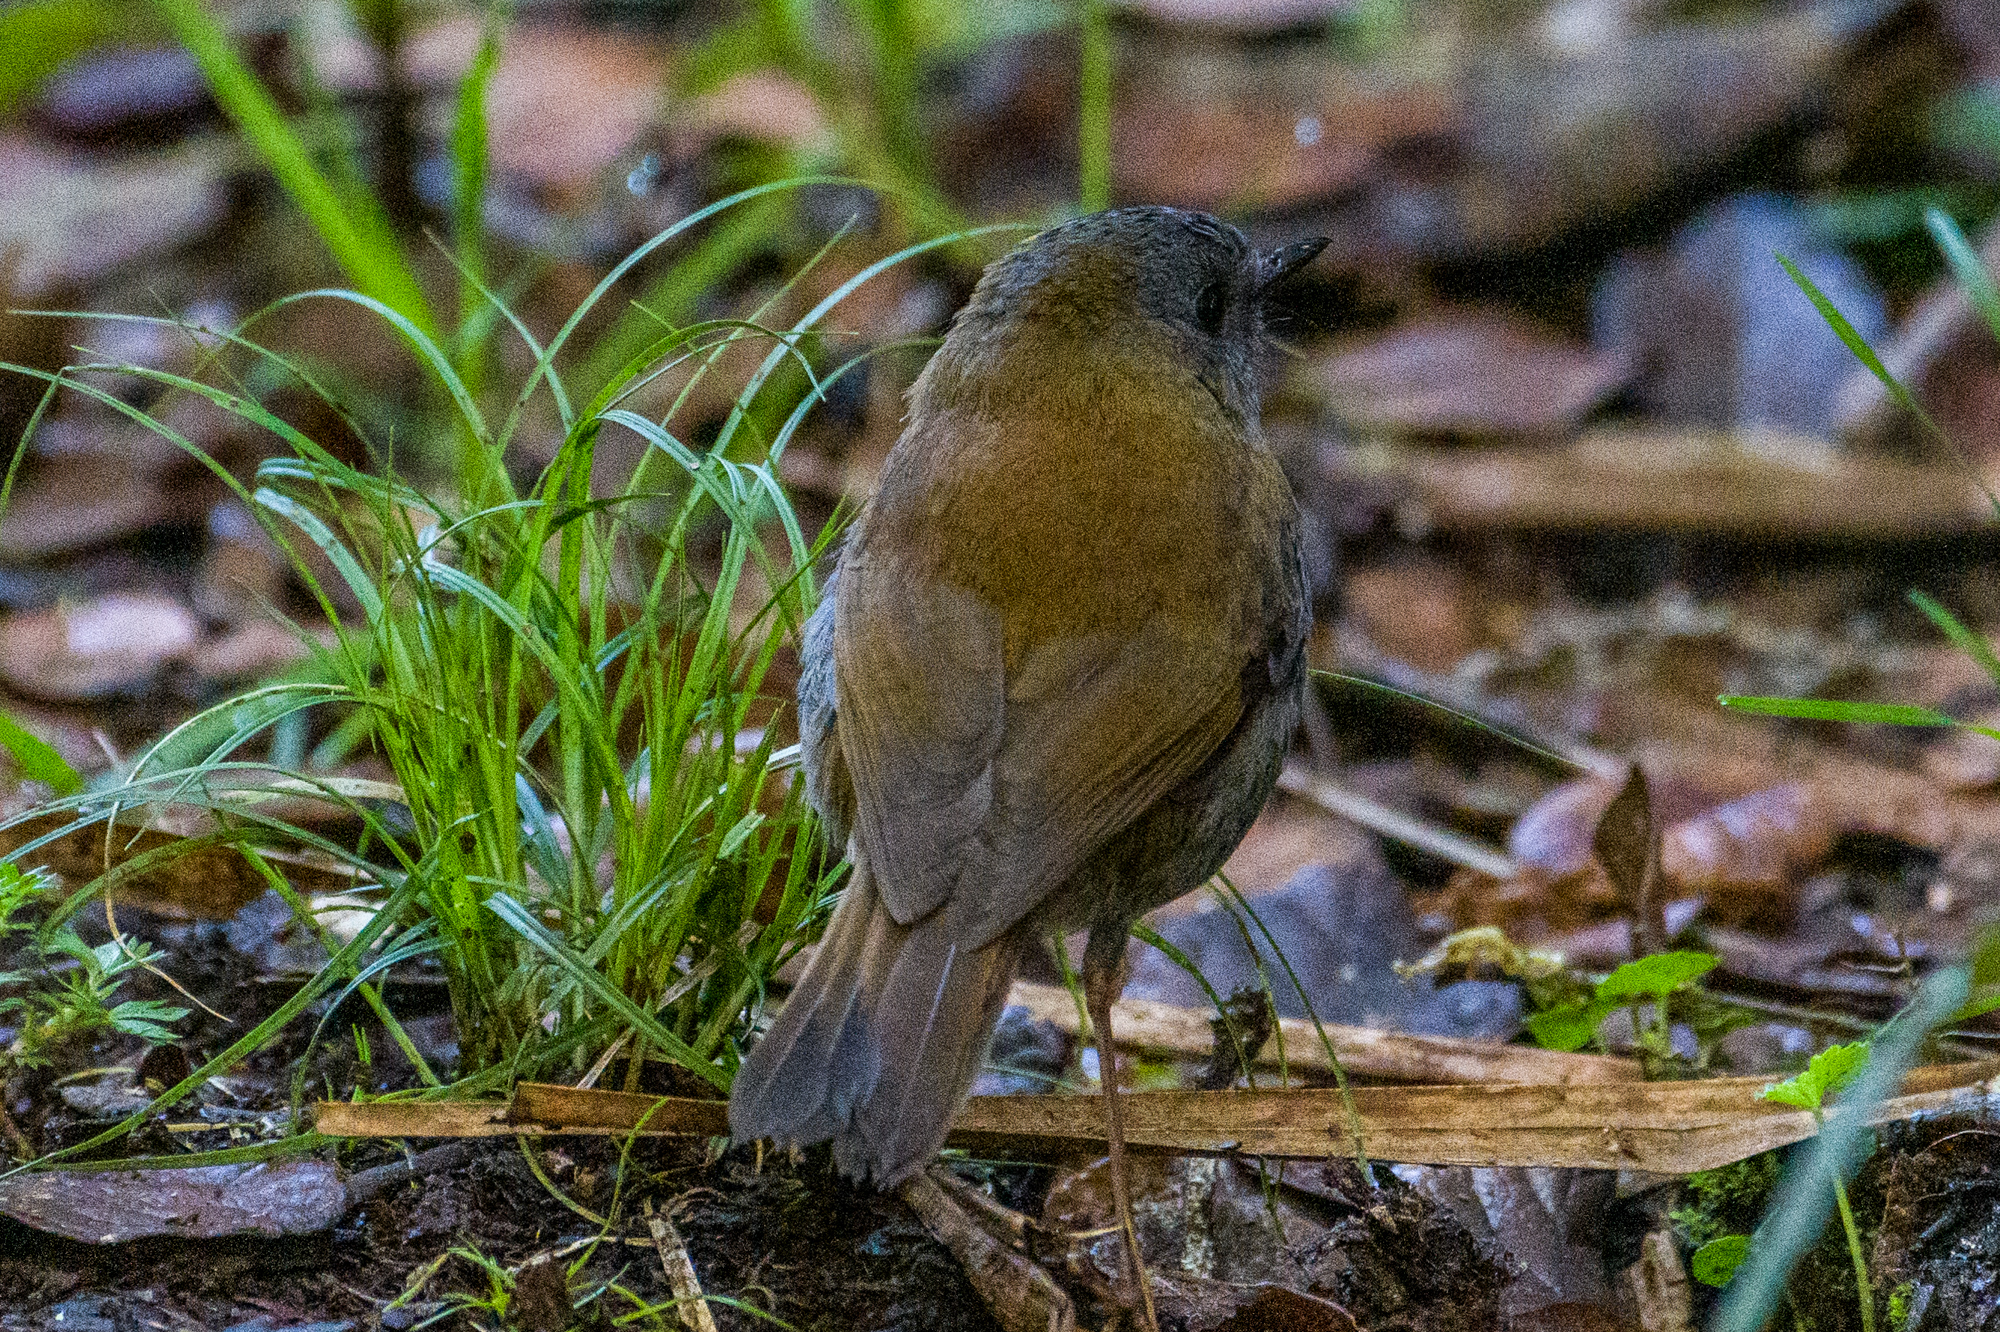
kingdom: Animalia
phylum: Chordata
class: Aves
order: Passeriformes
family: Turdidae
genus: Catharus
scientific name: Catharus gracilirostris
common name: Black-billed nightingale-thrush
